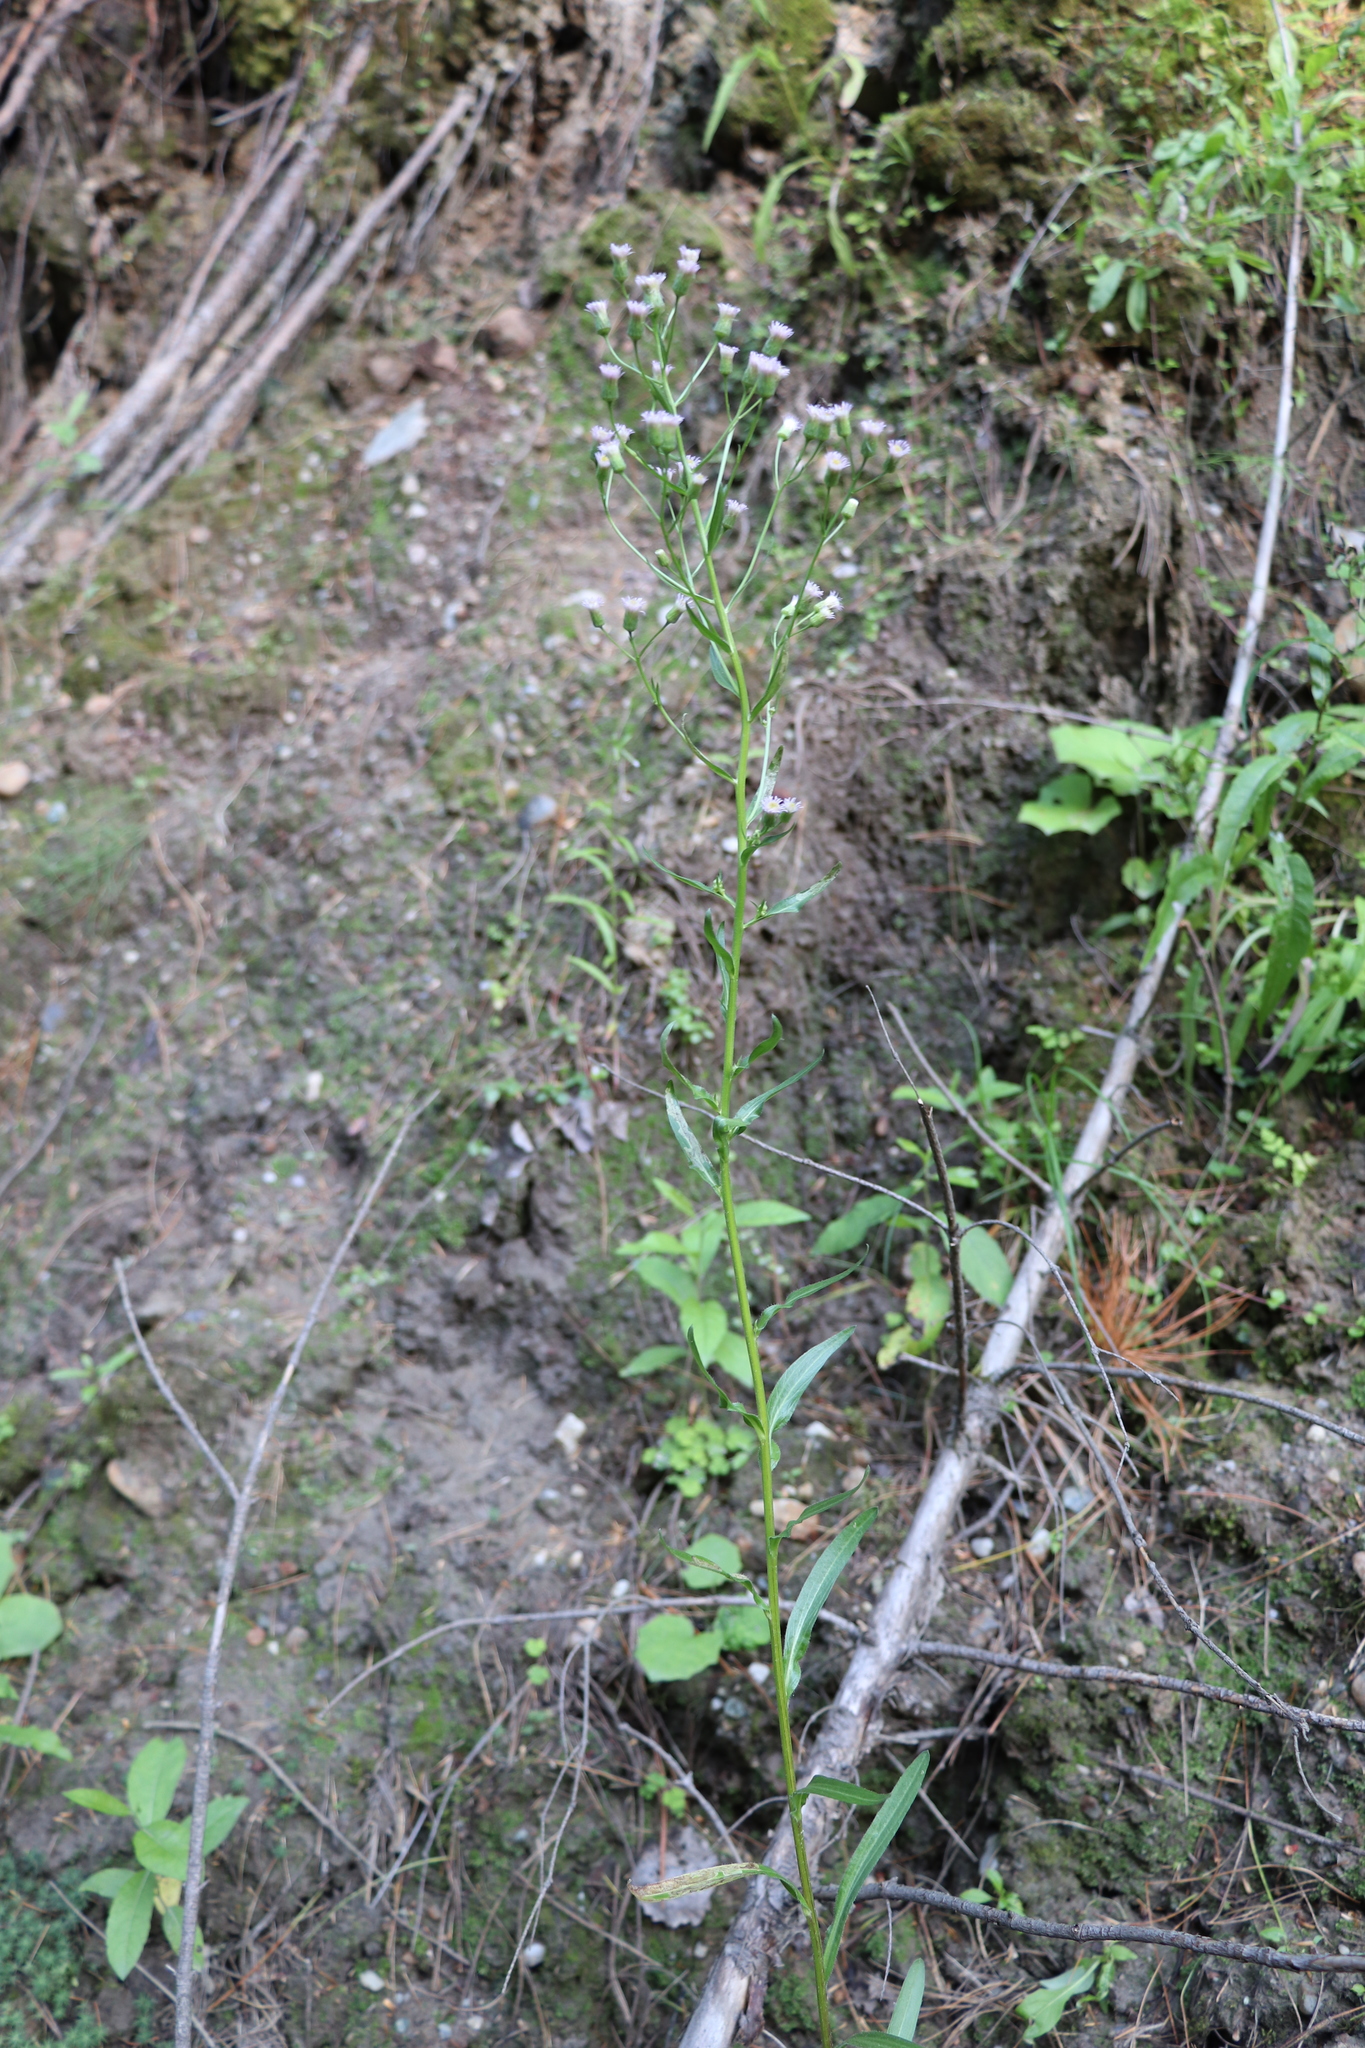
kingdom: Plantae
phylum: Tracheophyta
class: Magnoliopsida
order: Asterales
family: Asteraceae
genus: Erigeron
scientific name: Erigeron acris
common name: Blue fleabane
